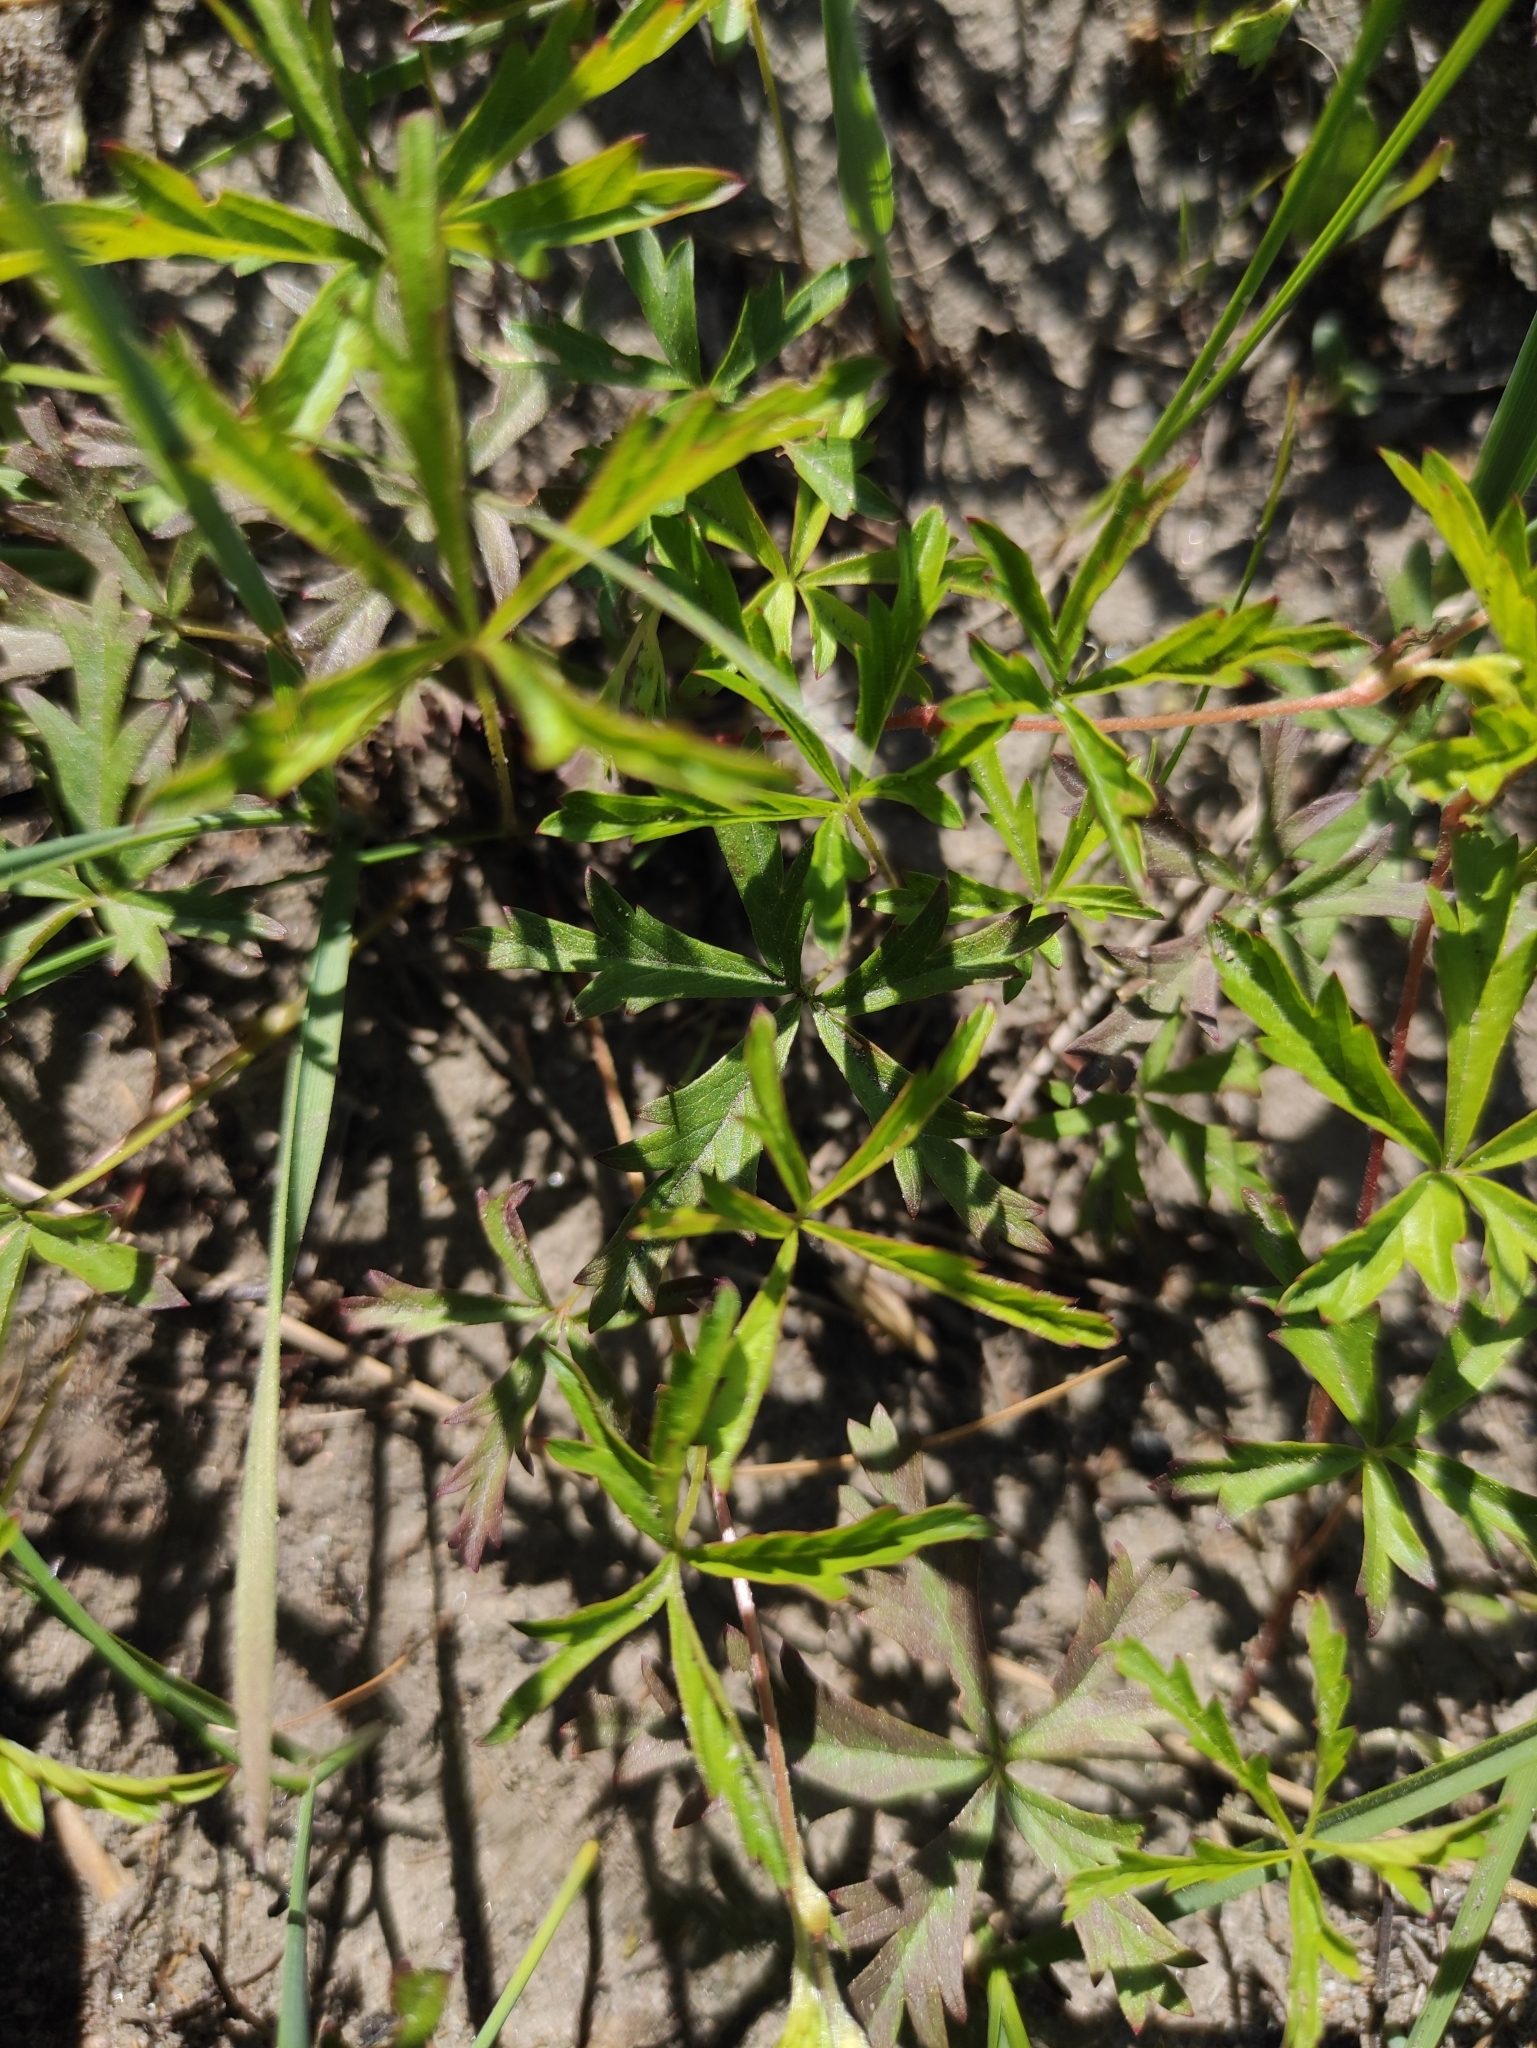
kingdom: Plantae
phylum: Tracheophyta
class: Magnoliopsida
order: Rosales
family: Rosaceae
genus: Potentilla
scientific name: Potentilla flagellaris
